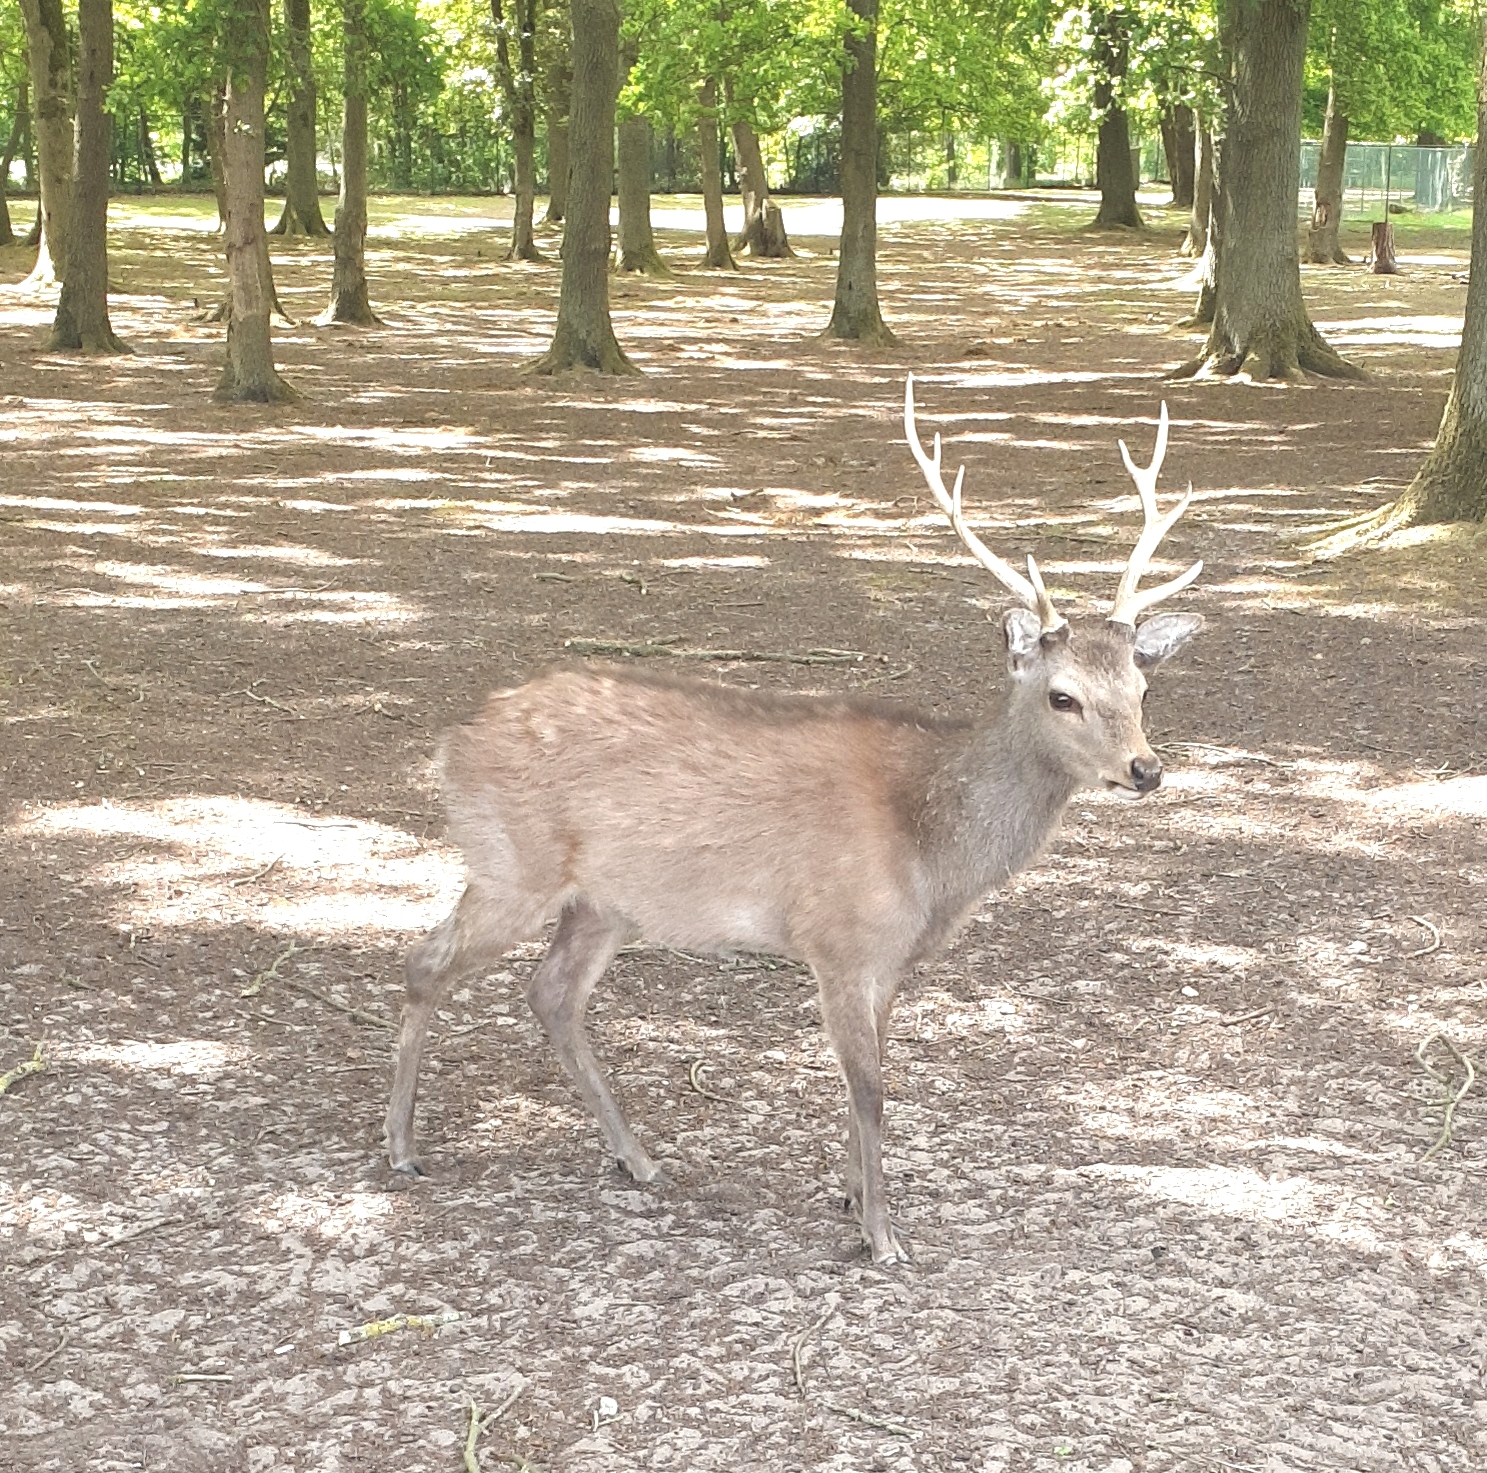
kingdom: Animalia
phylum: Chordata
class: Mammalia
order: Artiodactyla
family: Cervidae
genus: Cervus
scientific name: Cervus nippon
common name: Sika deer
